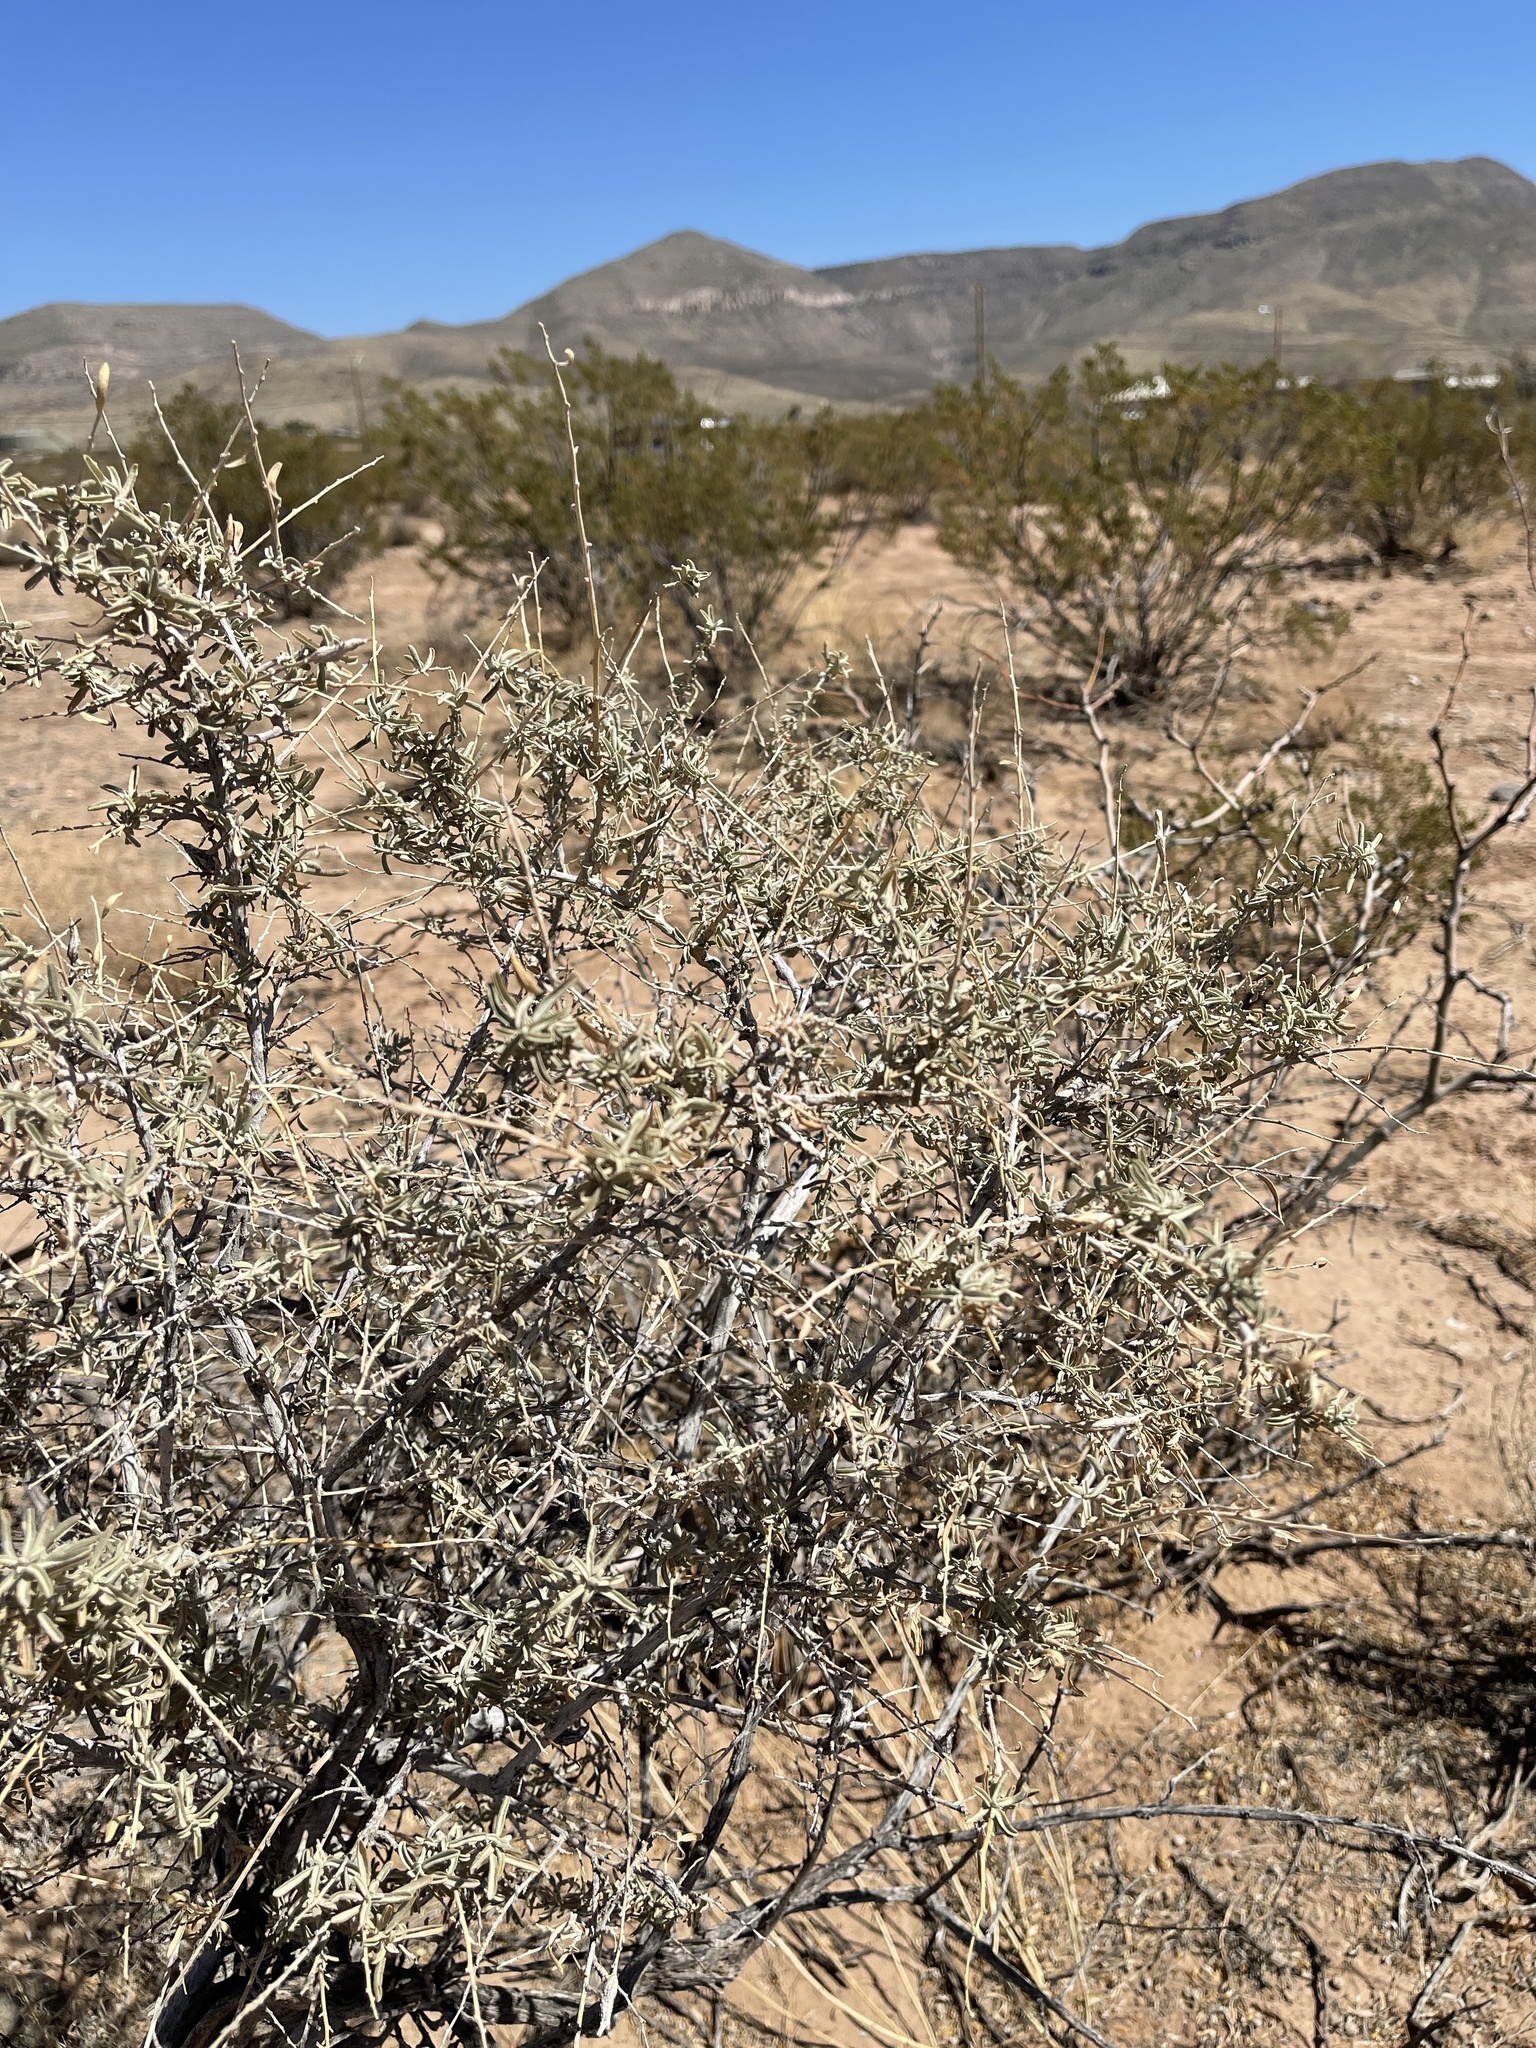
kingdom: Plantae
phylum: Tracheophyta
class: Magnoliopsida
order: Caryophyllales
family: Amaranthaceae
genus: Atriplex
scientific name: Atriplex canescens
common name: Four-wing saltbush
